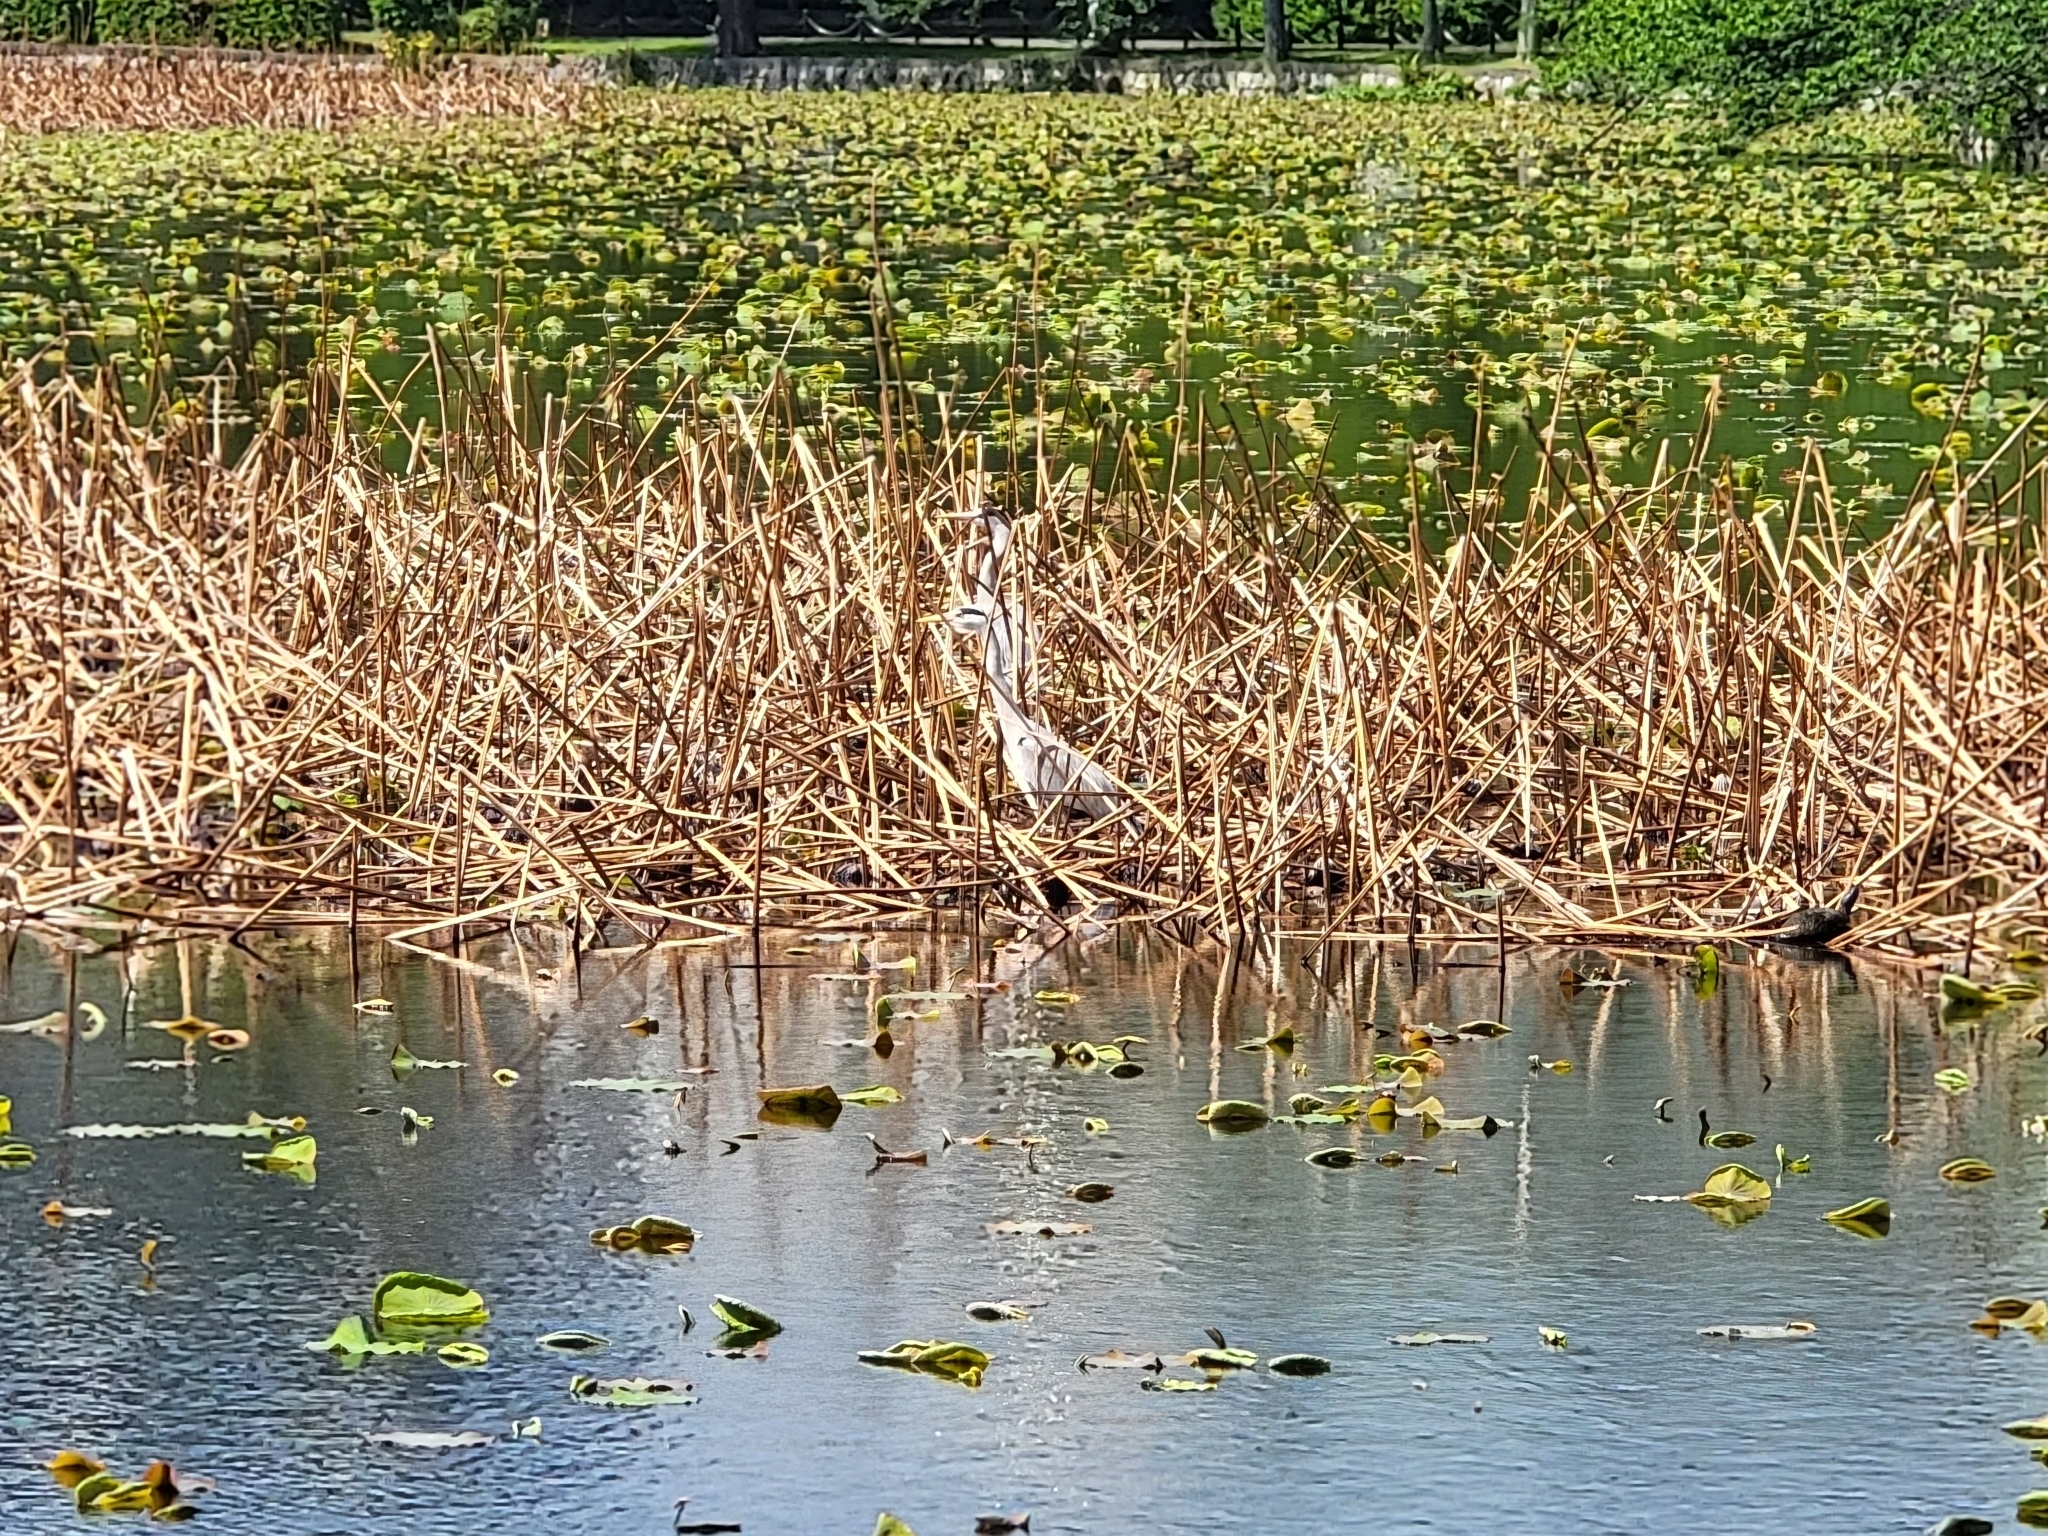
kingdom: Animalia
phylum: Chordata
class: Aves
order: Pelecaniformes
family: Ardeidae
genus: Ardea
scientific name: Ardea cinerea
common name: Grey heron
